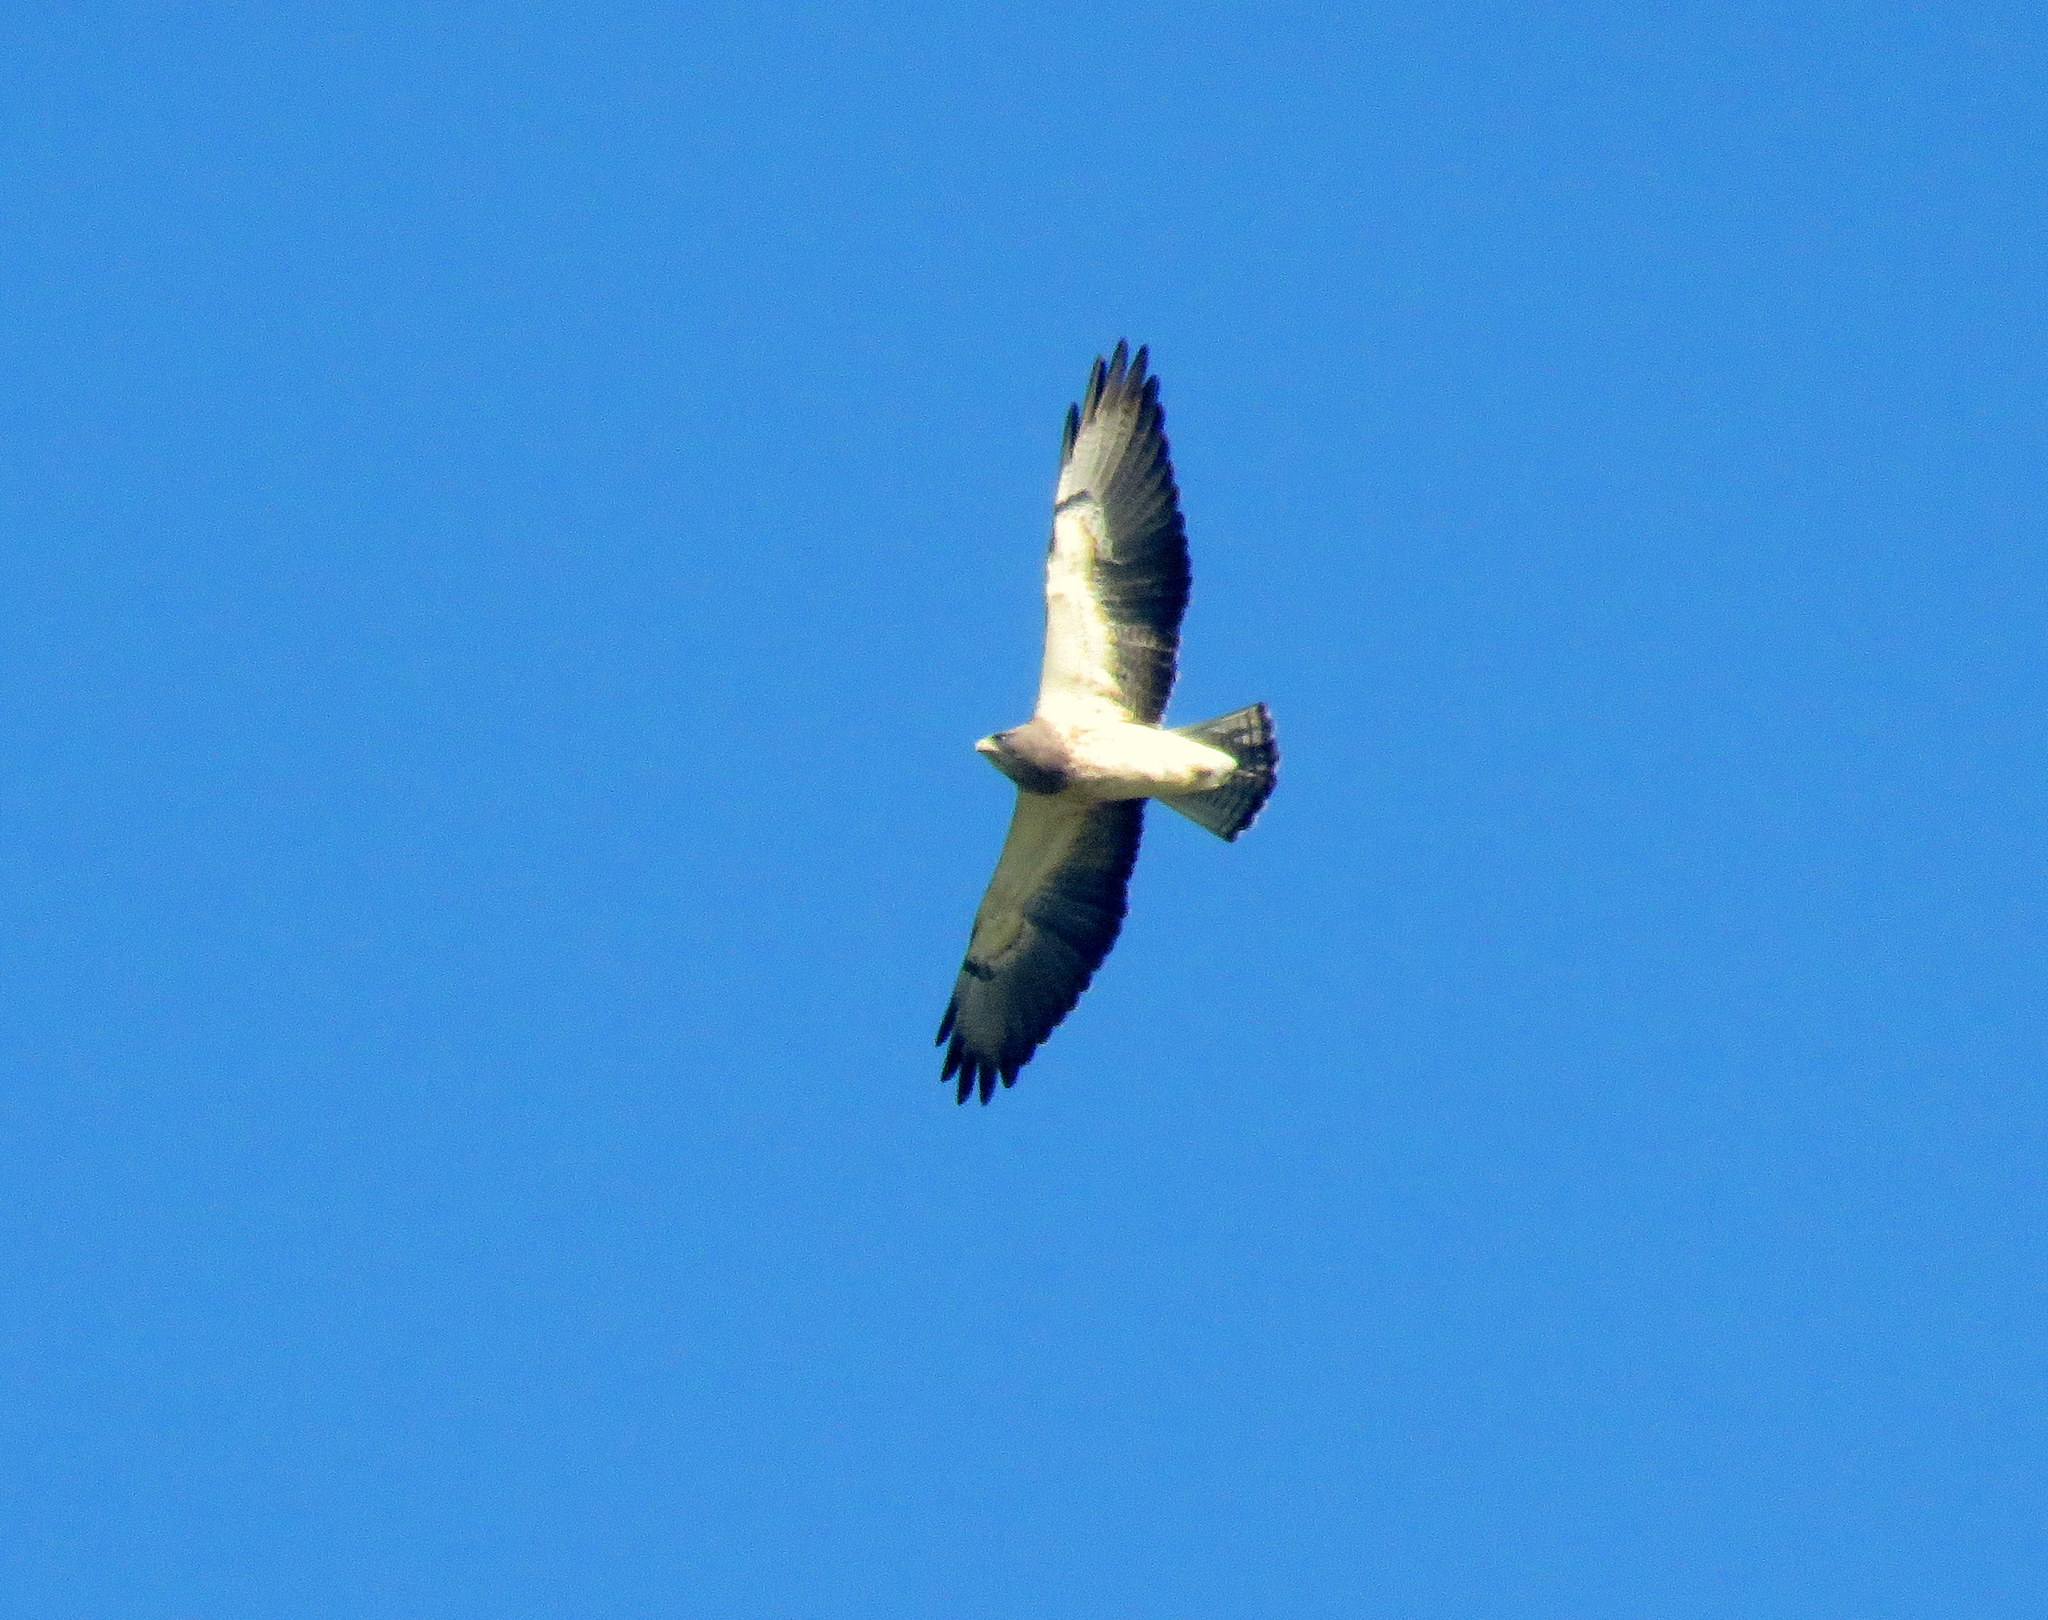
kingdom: Animalia
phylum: Chordata
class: Aves
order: Accipitriformes
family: Accipitridae
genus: Buteo
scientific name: Buteo swainsoni
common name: Swainson's hawk
